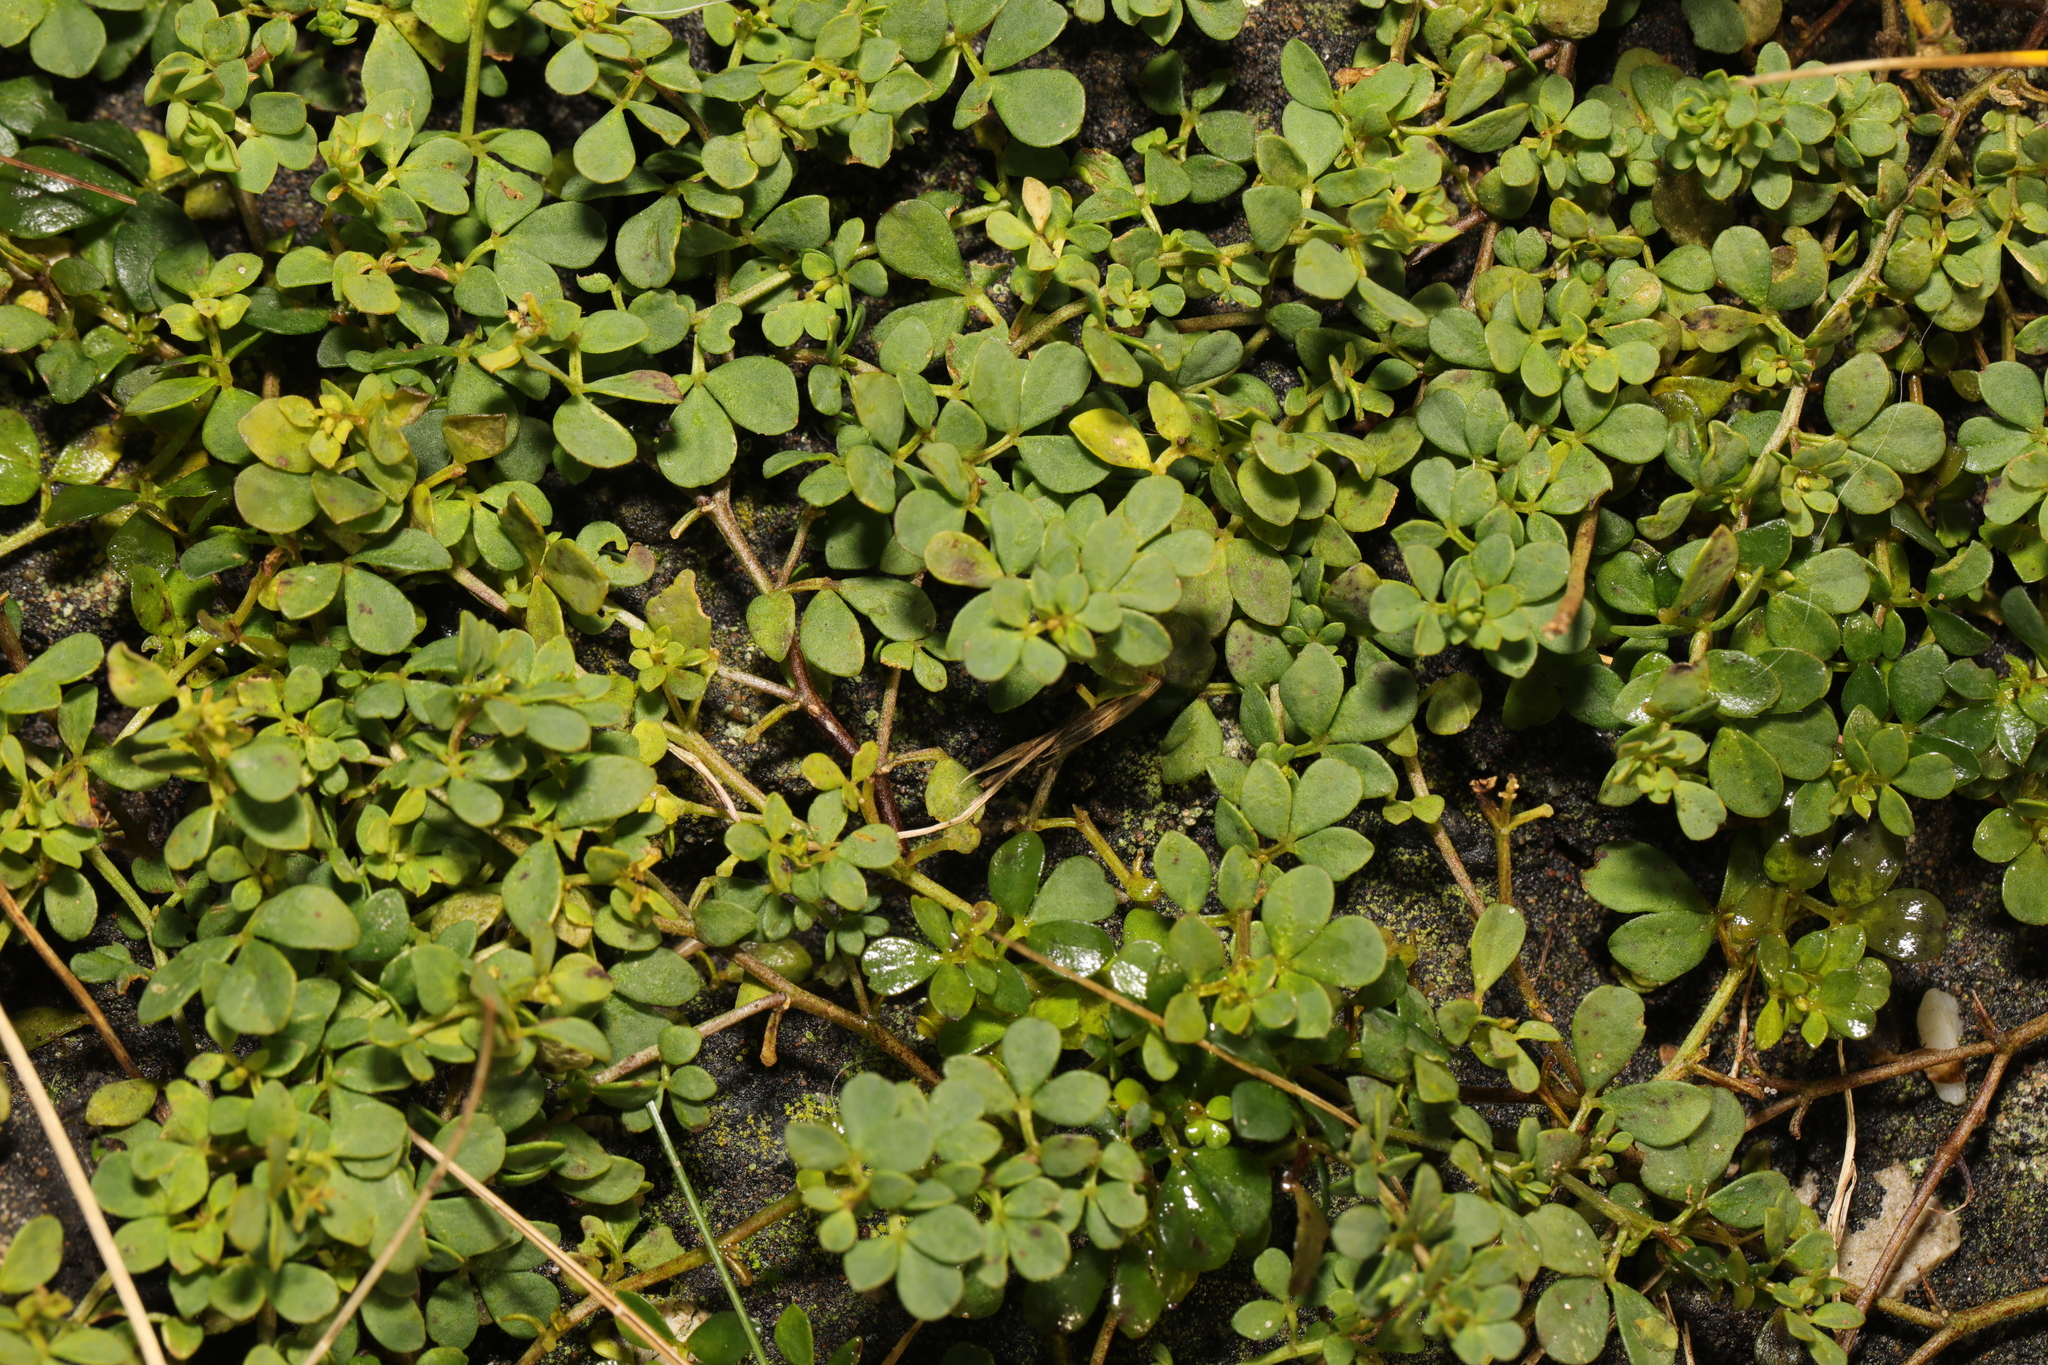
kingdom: Plantae
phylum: Tracheophyta
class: Magnoliopsida
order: Fabales
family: Fabaceae
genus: Lotus
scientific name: Lotus corniculatus
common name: Common bird's-foot-trefoil
